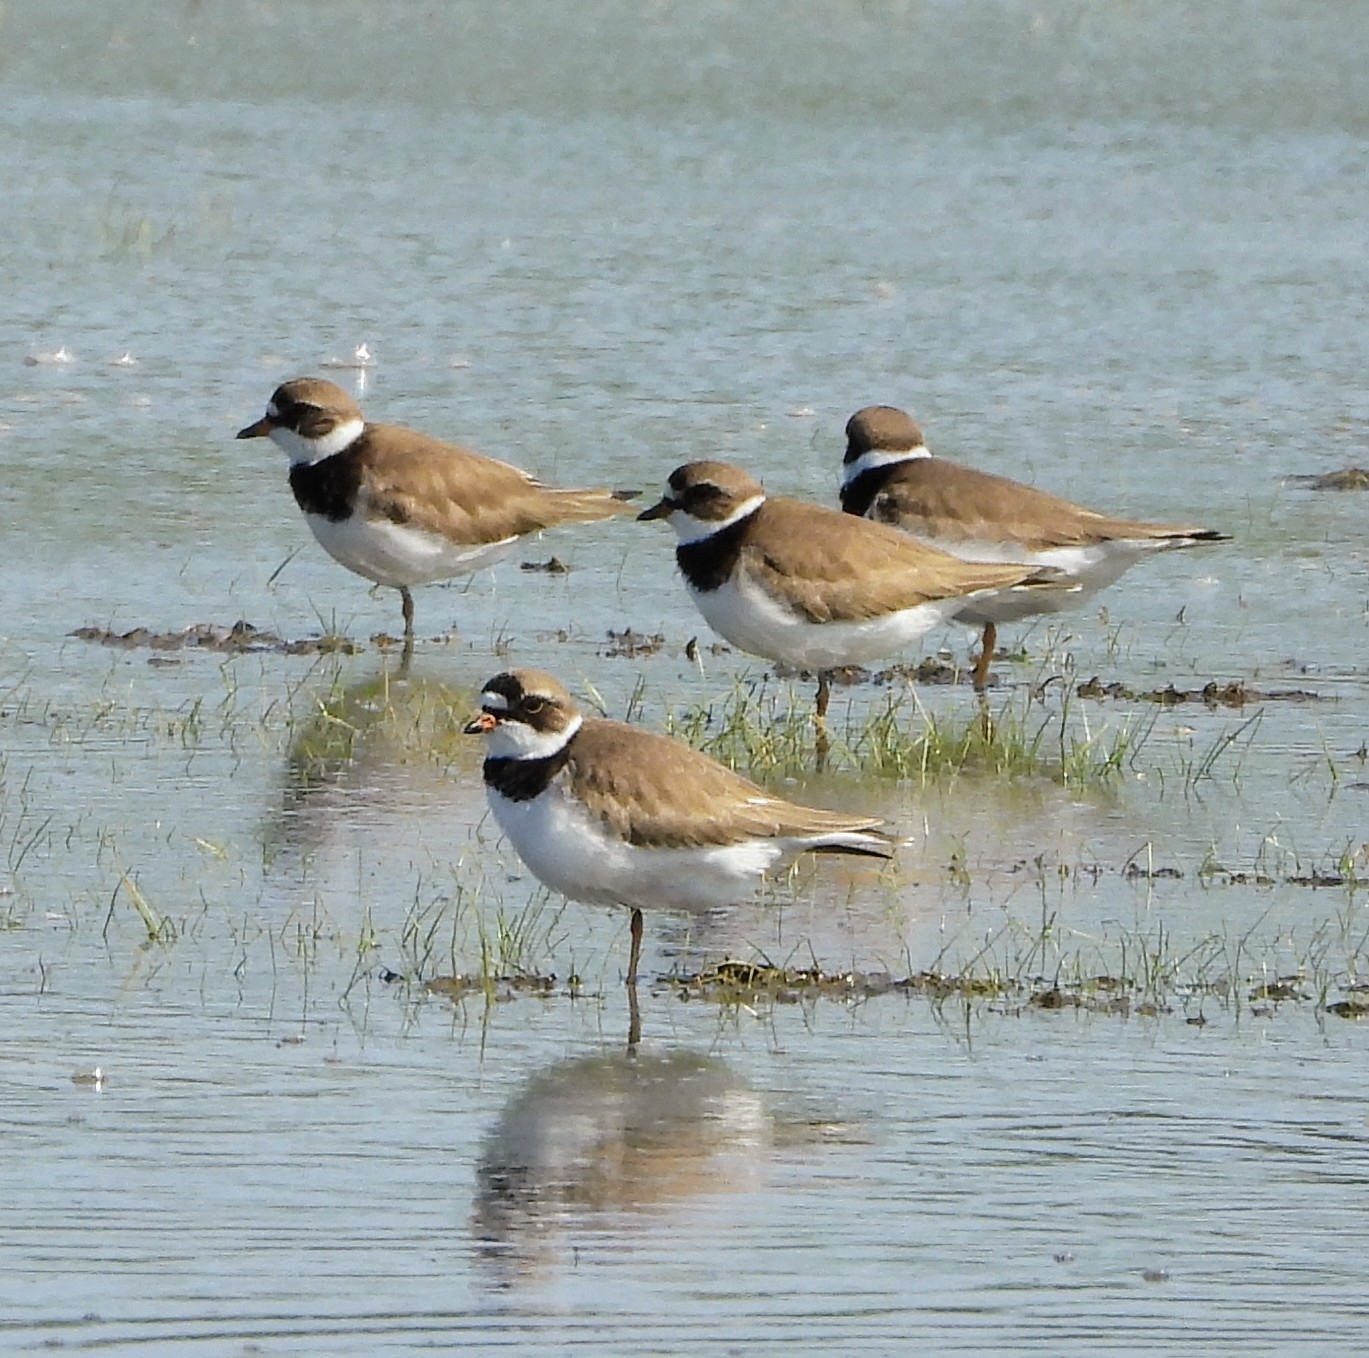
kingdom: Animalia
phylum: Chordata
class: Aves
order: Charadriiformes
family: Charadriidae
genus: Charadrius
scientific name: Charadrius semipalmatus
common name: Semipalmated plover
